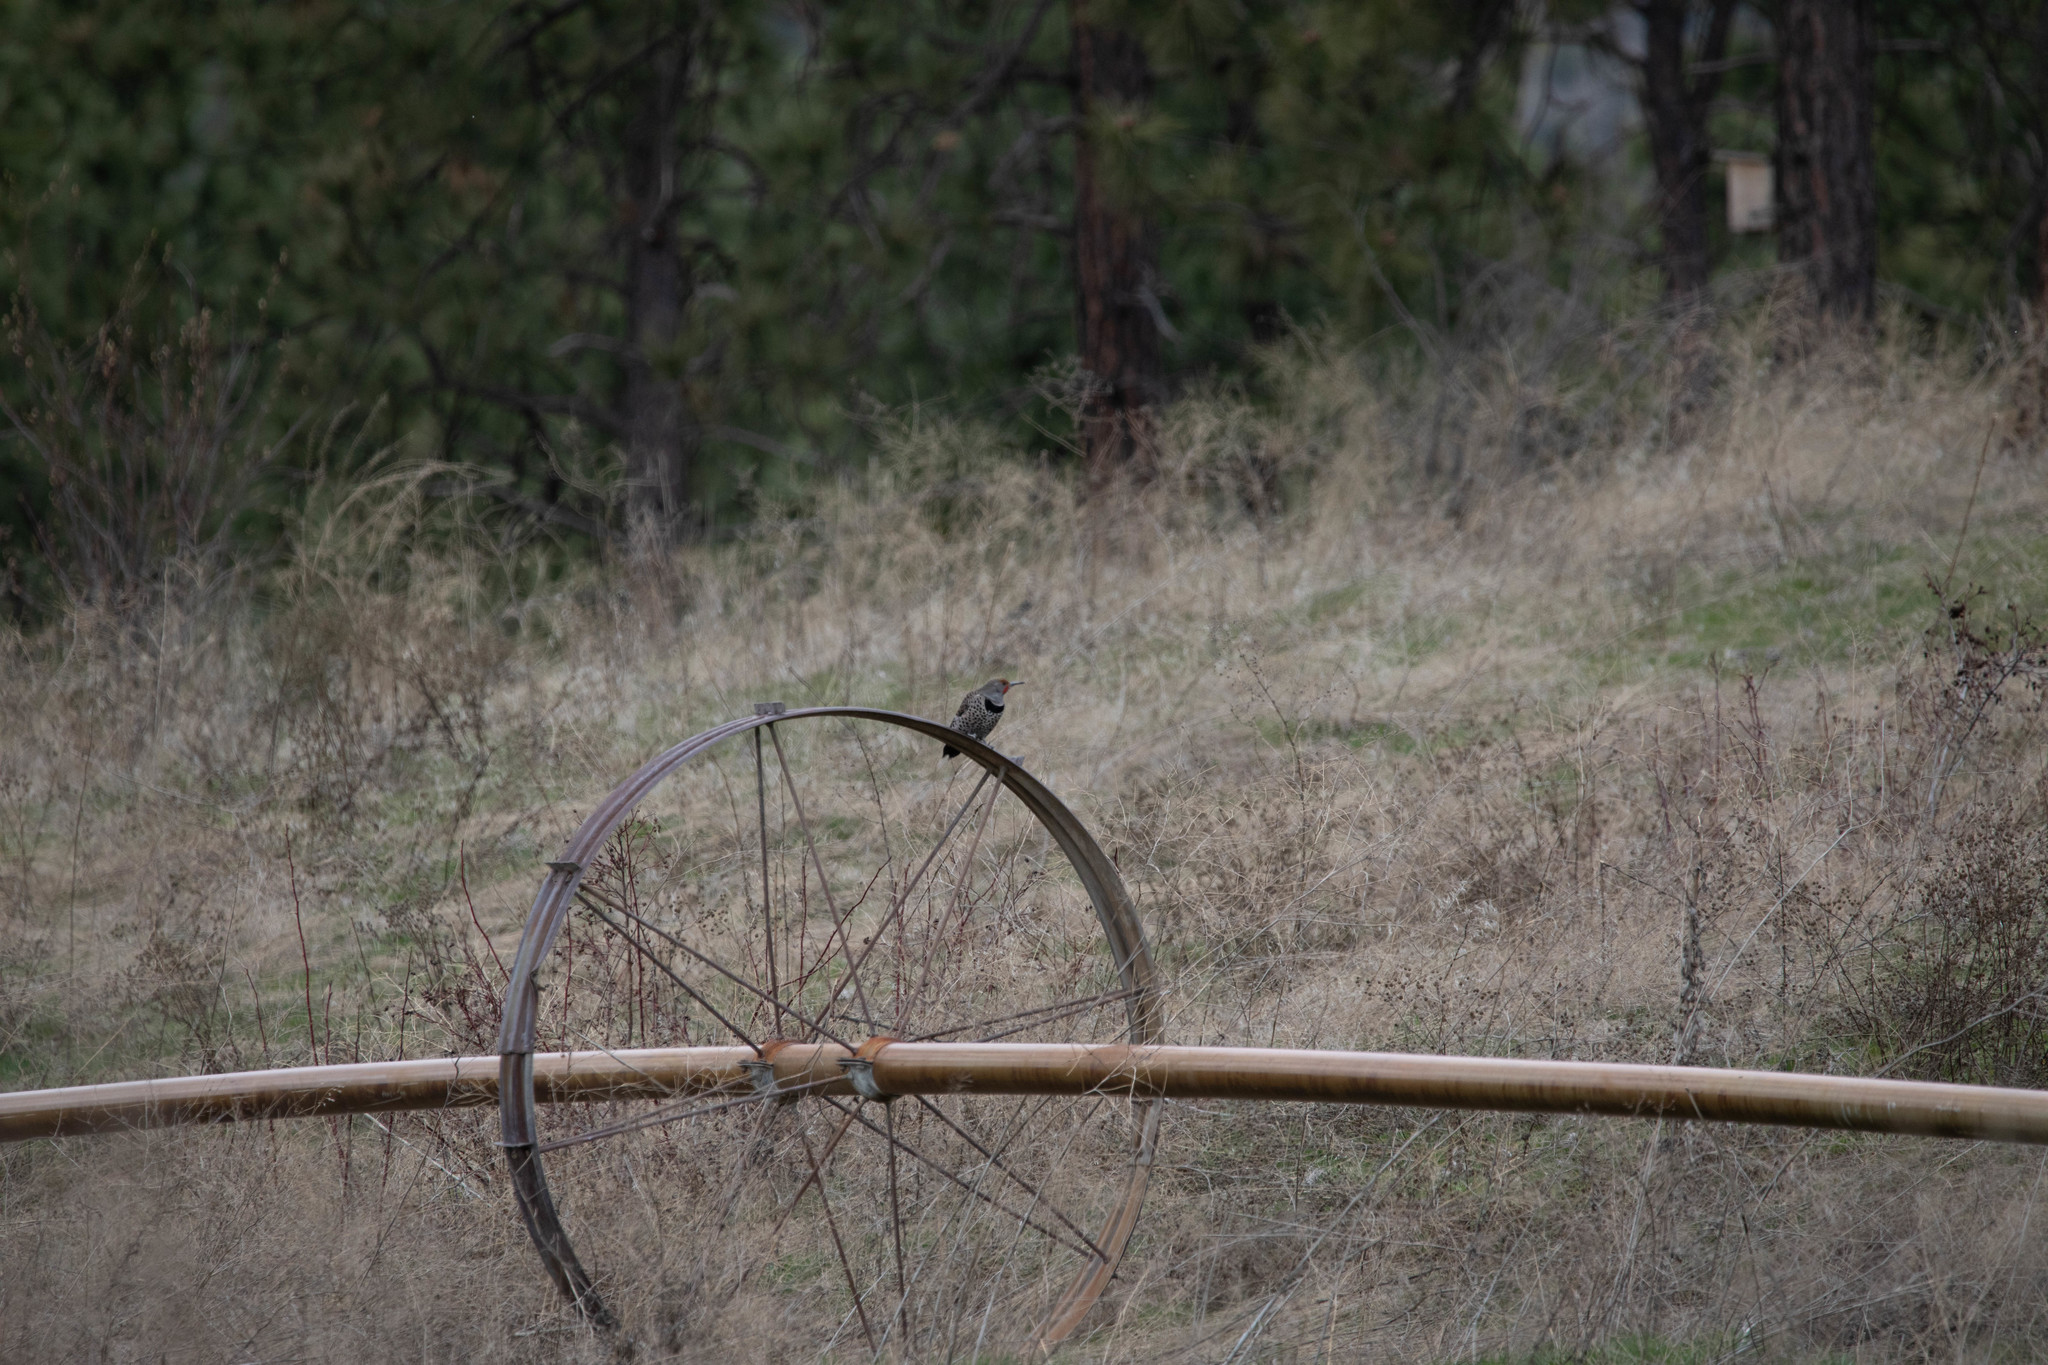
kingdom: Animalia
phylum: Chordata
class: Aves
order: Piciformes
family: Picidae
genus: Colaptes
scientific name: Colaptes auratus
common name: Northern flicker
